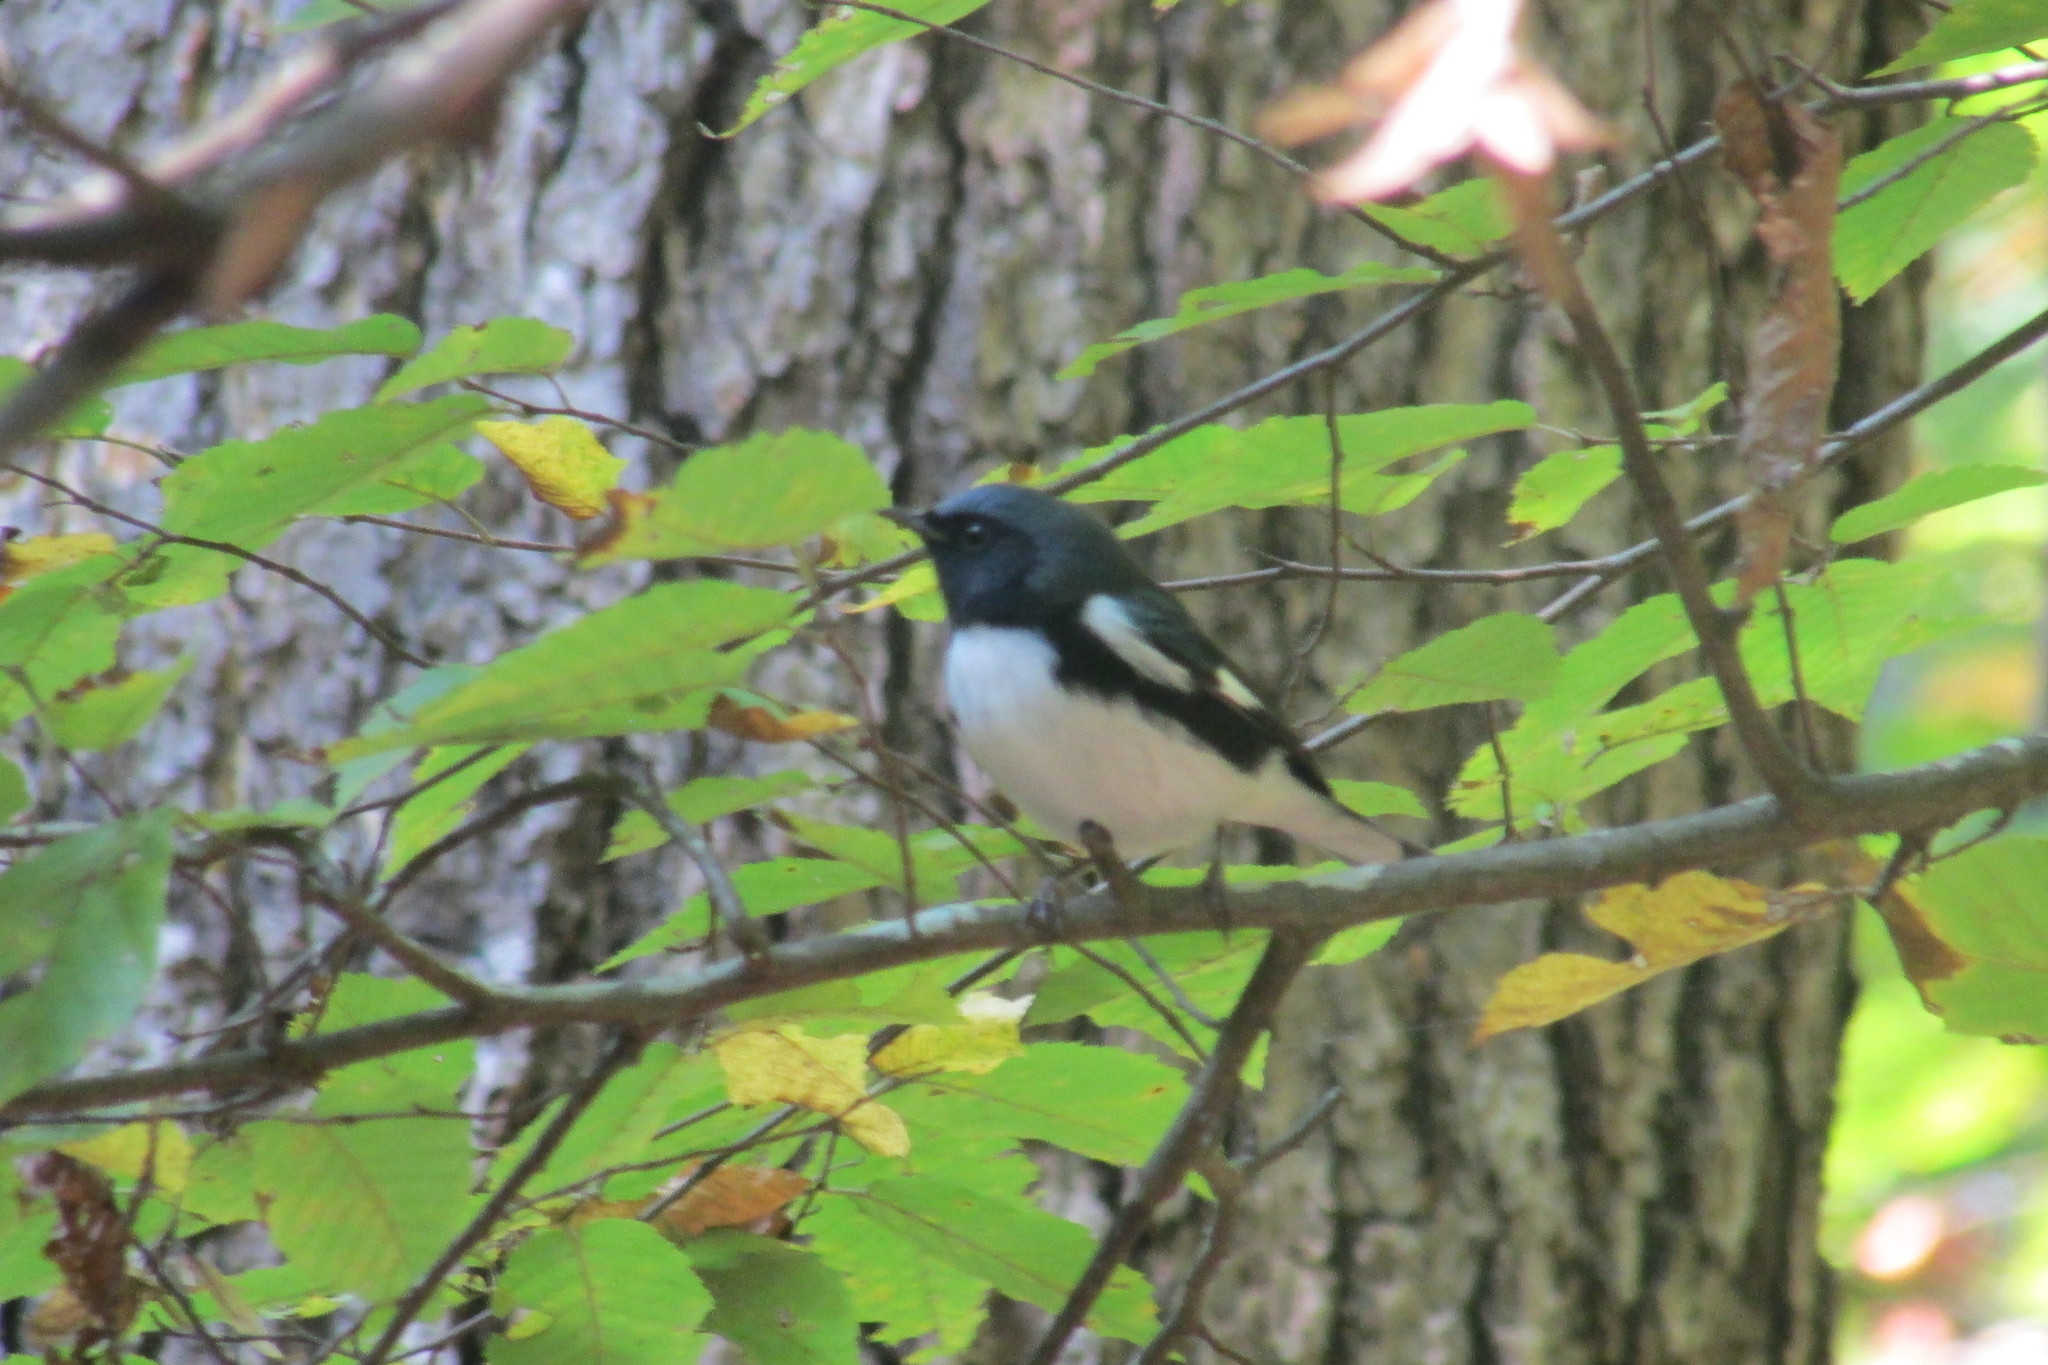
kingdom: Animalia
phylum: Chordata
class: Aves
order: Passeriformes
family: Parulidae
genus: Setophaga
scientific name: Setophaga caerulescens
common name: Black-throated blue warbler
